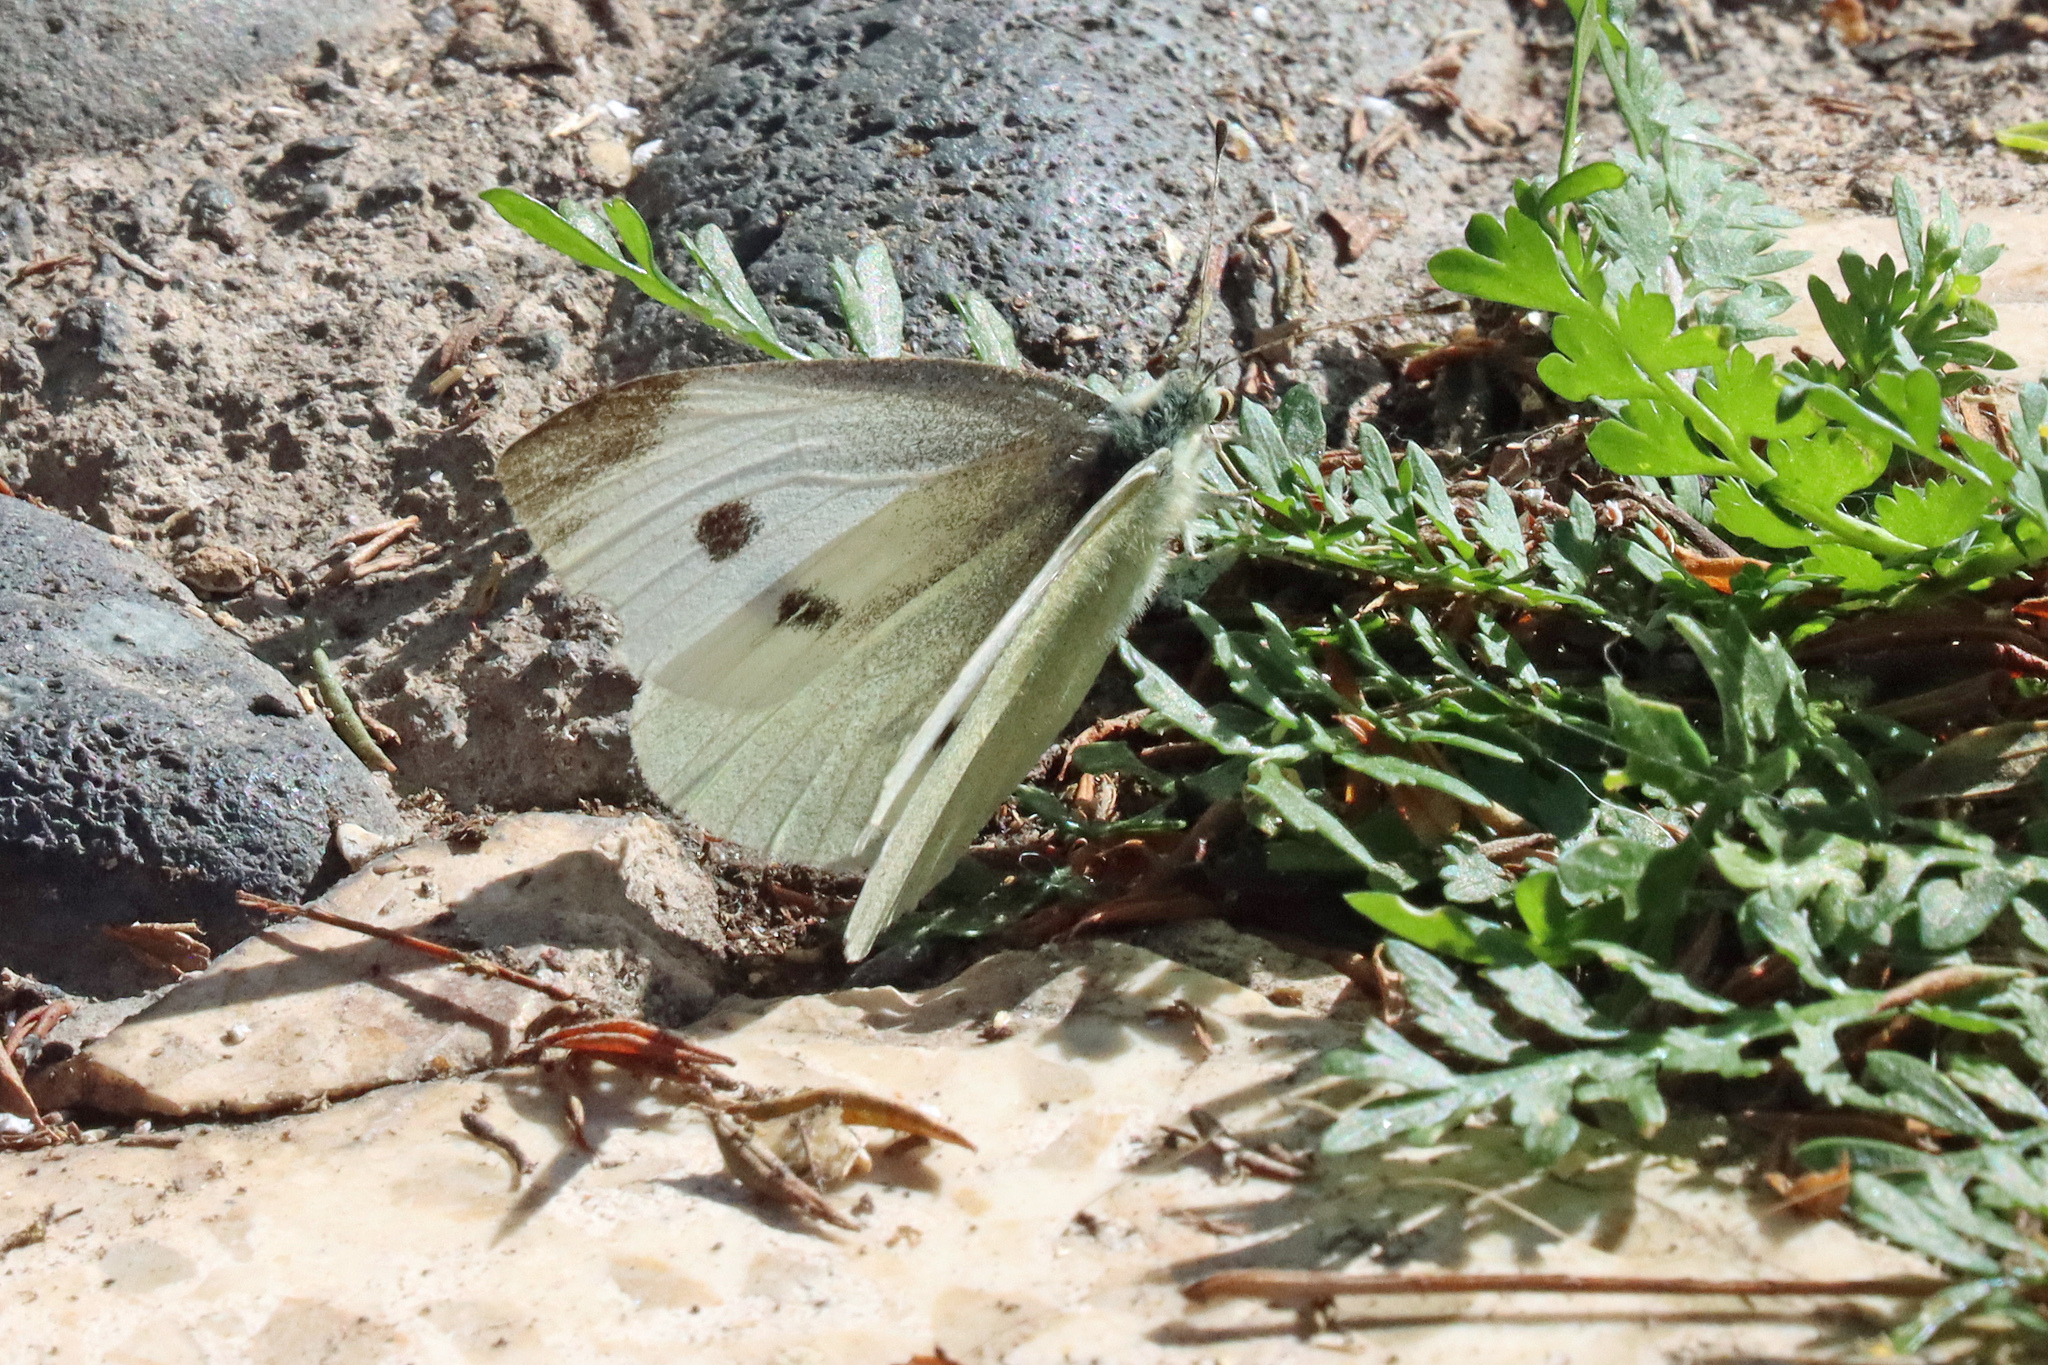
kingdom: Animalia
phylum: Arthropoda
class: Insecta
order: Lepidoptera
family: Pieridae
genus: Pieris
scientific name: Pieris rapae
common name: Small white
